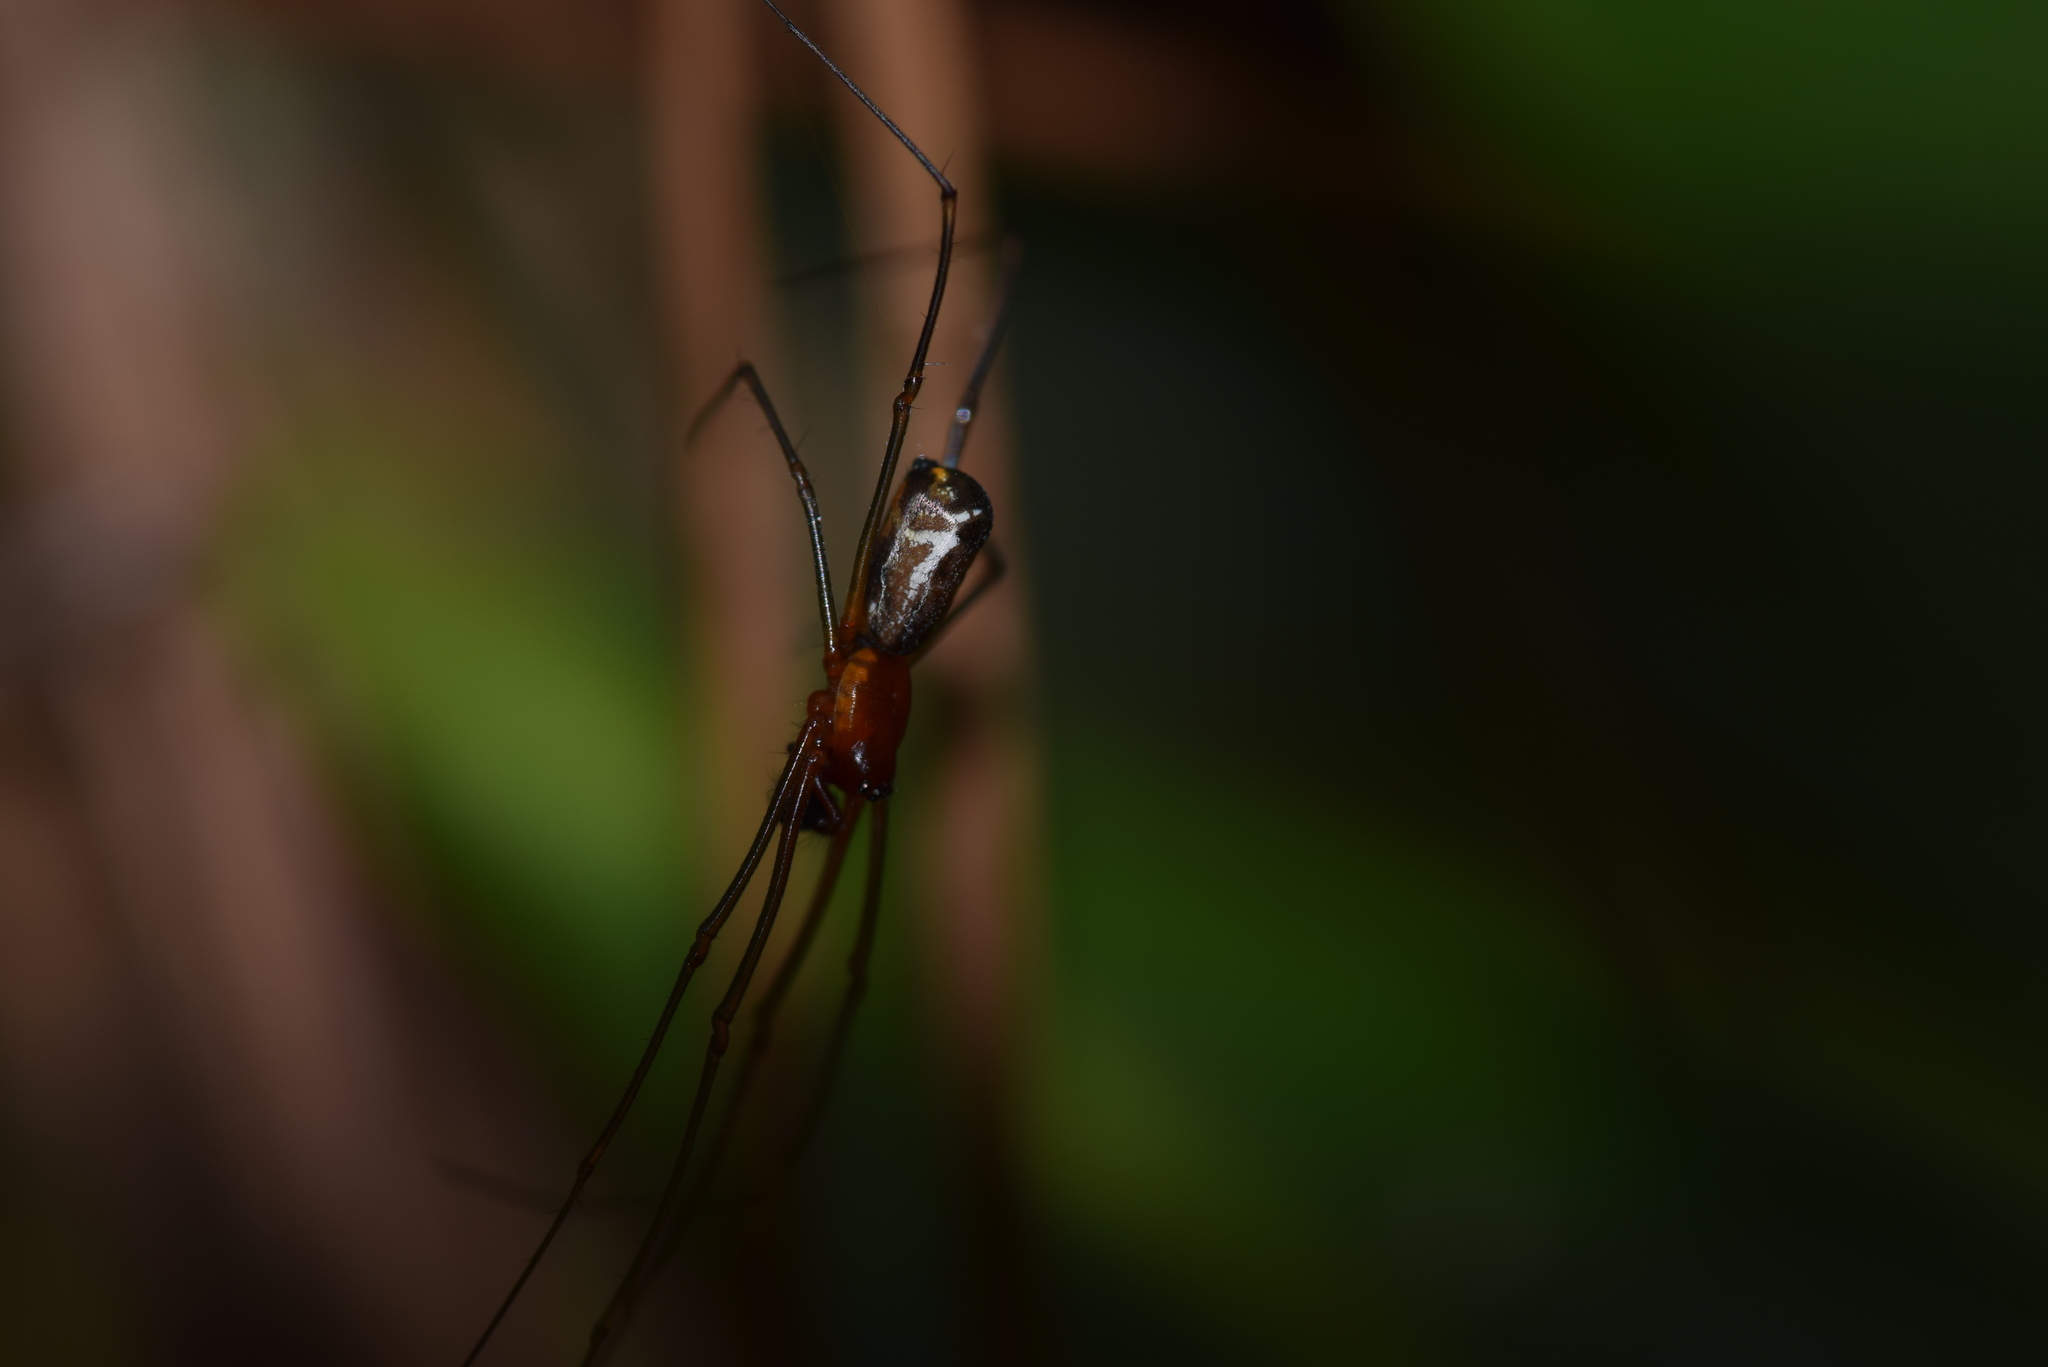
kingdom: Animalia
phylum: Arthropoda
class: Arachnida
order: Araneae
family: Linyphiidae
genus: Neriene
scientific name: Neriene radiata
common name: Filmy dome spider
